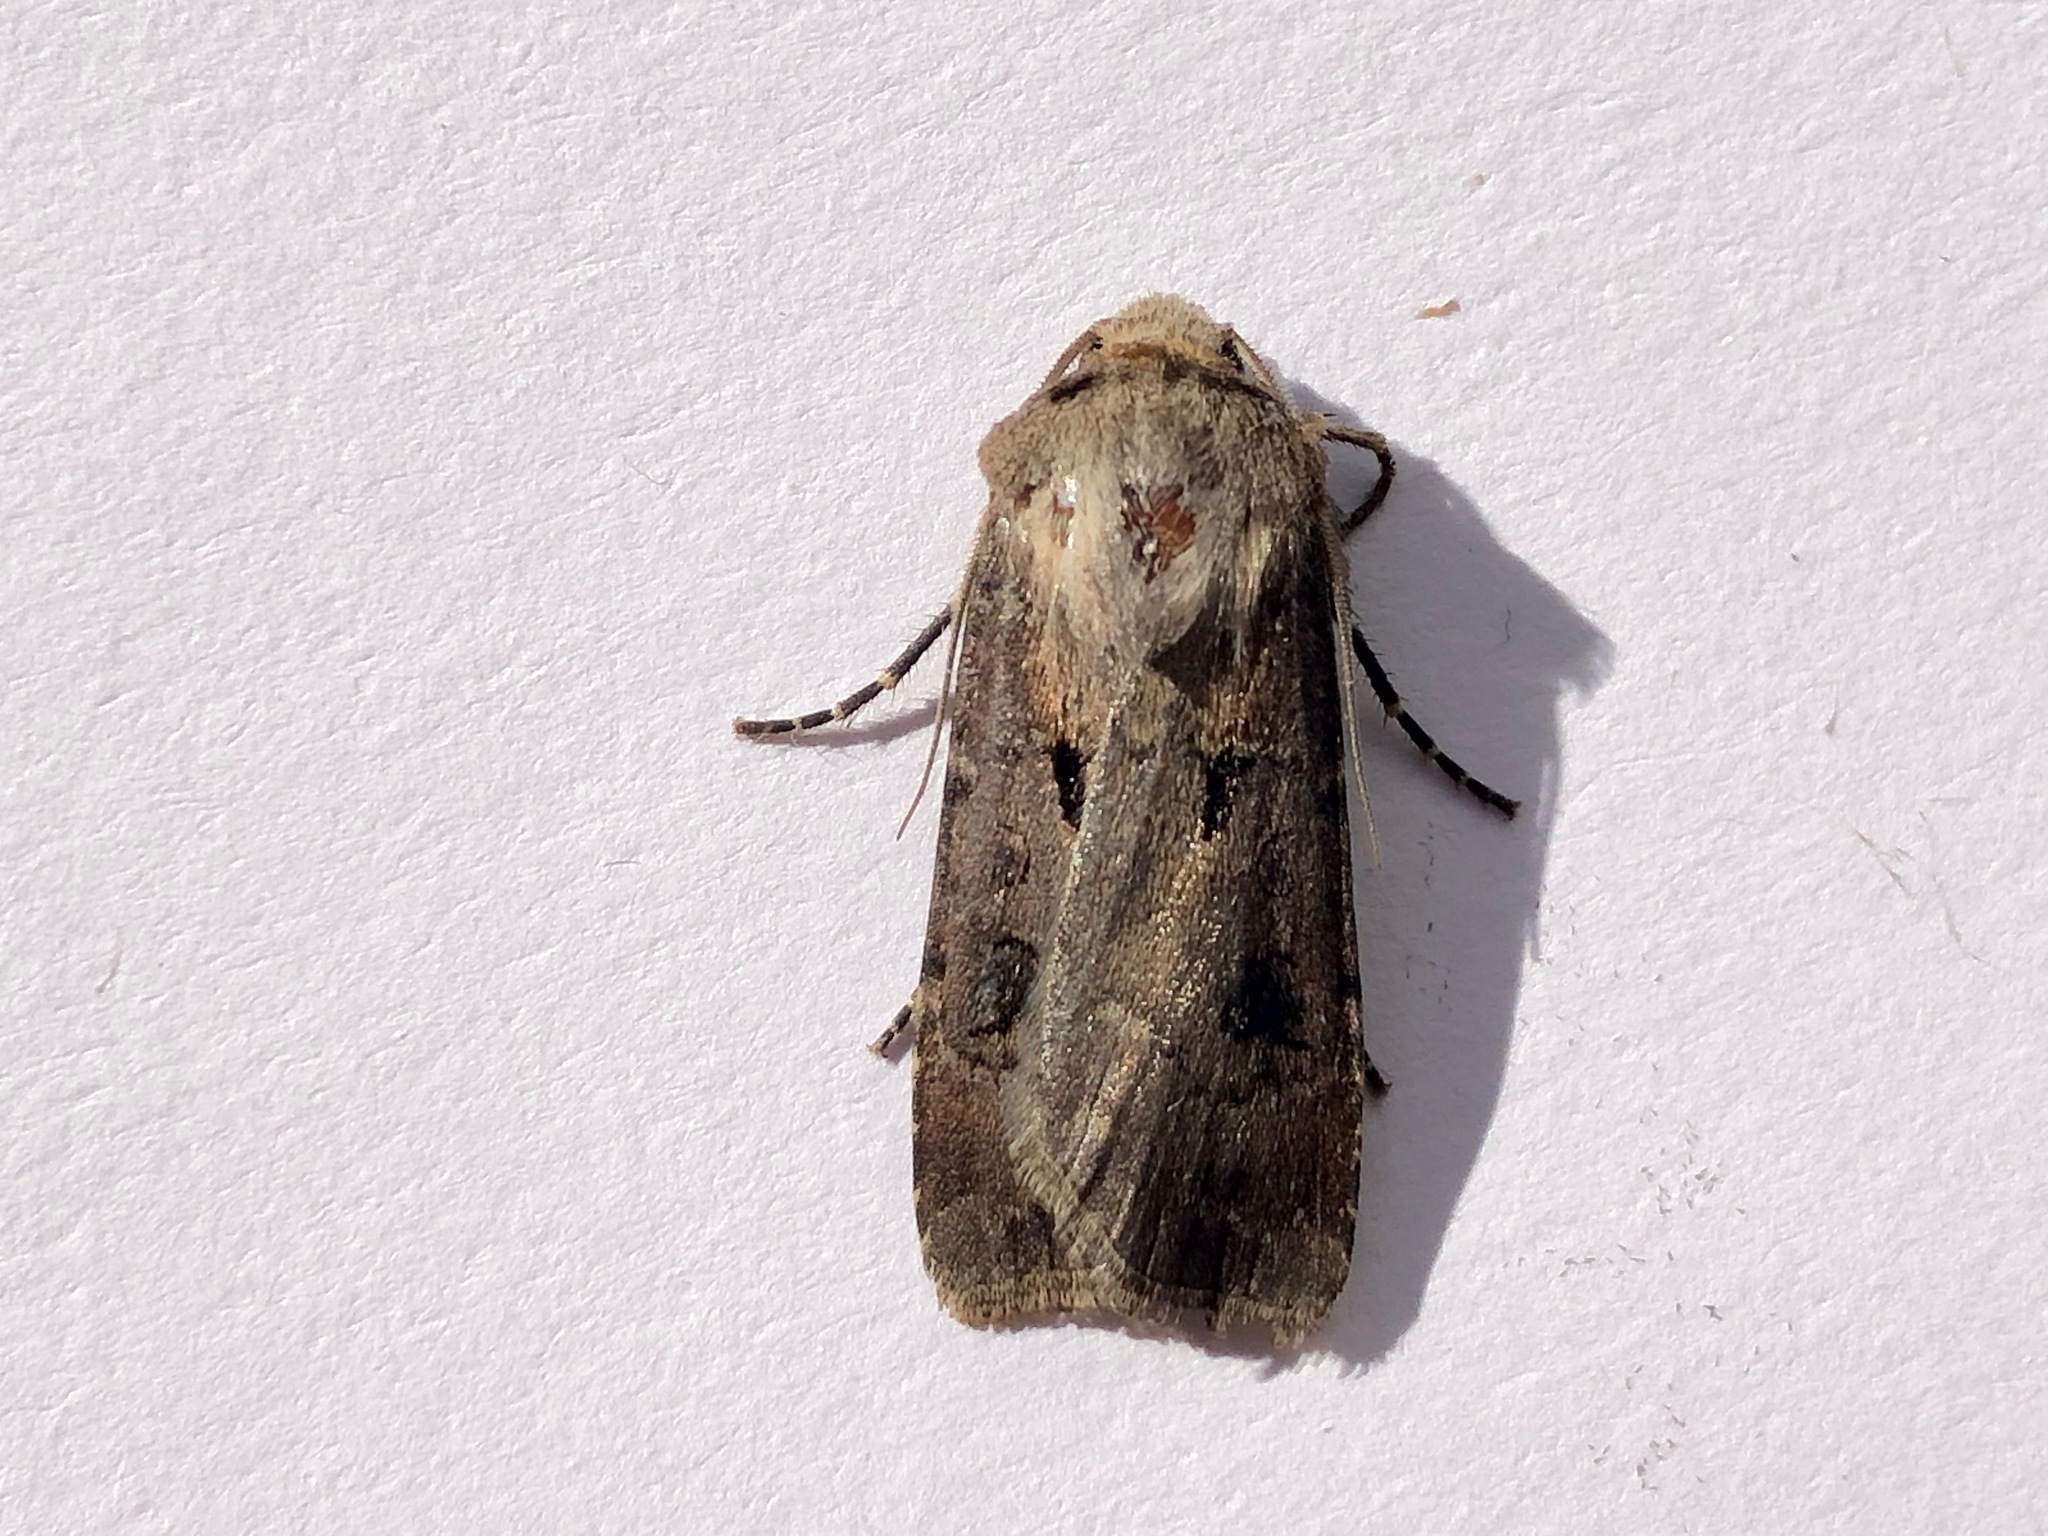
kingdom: Animalia
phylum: Arthropoda
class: Insecta
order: Lepidoptera
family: Noctuidae
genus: Agrotis
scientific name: Agrotis exclamationis
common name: Heart and dart
